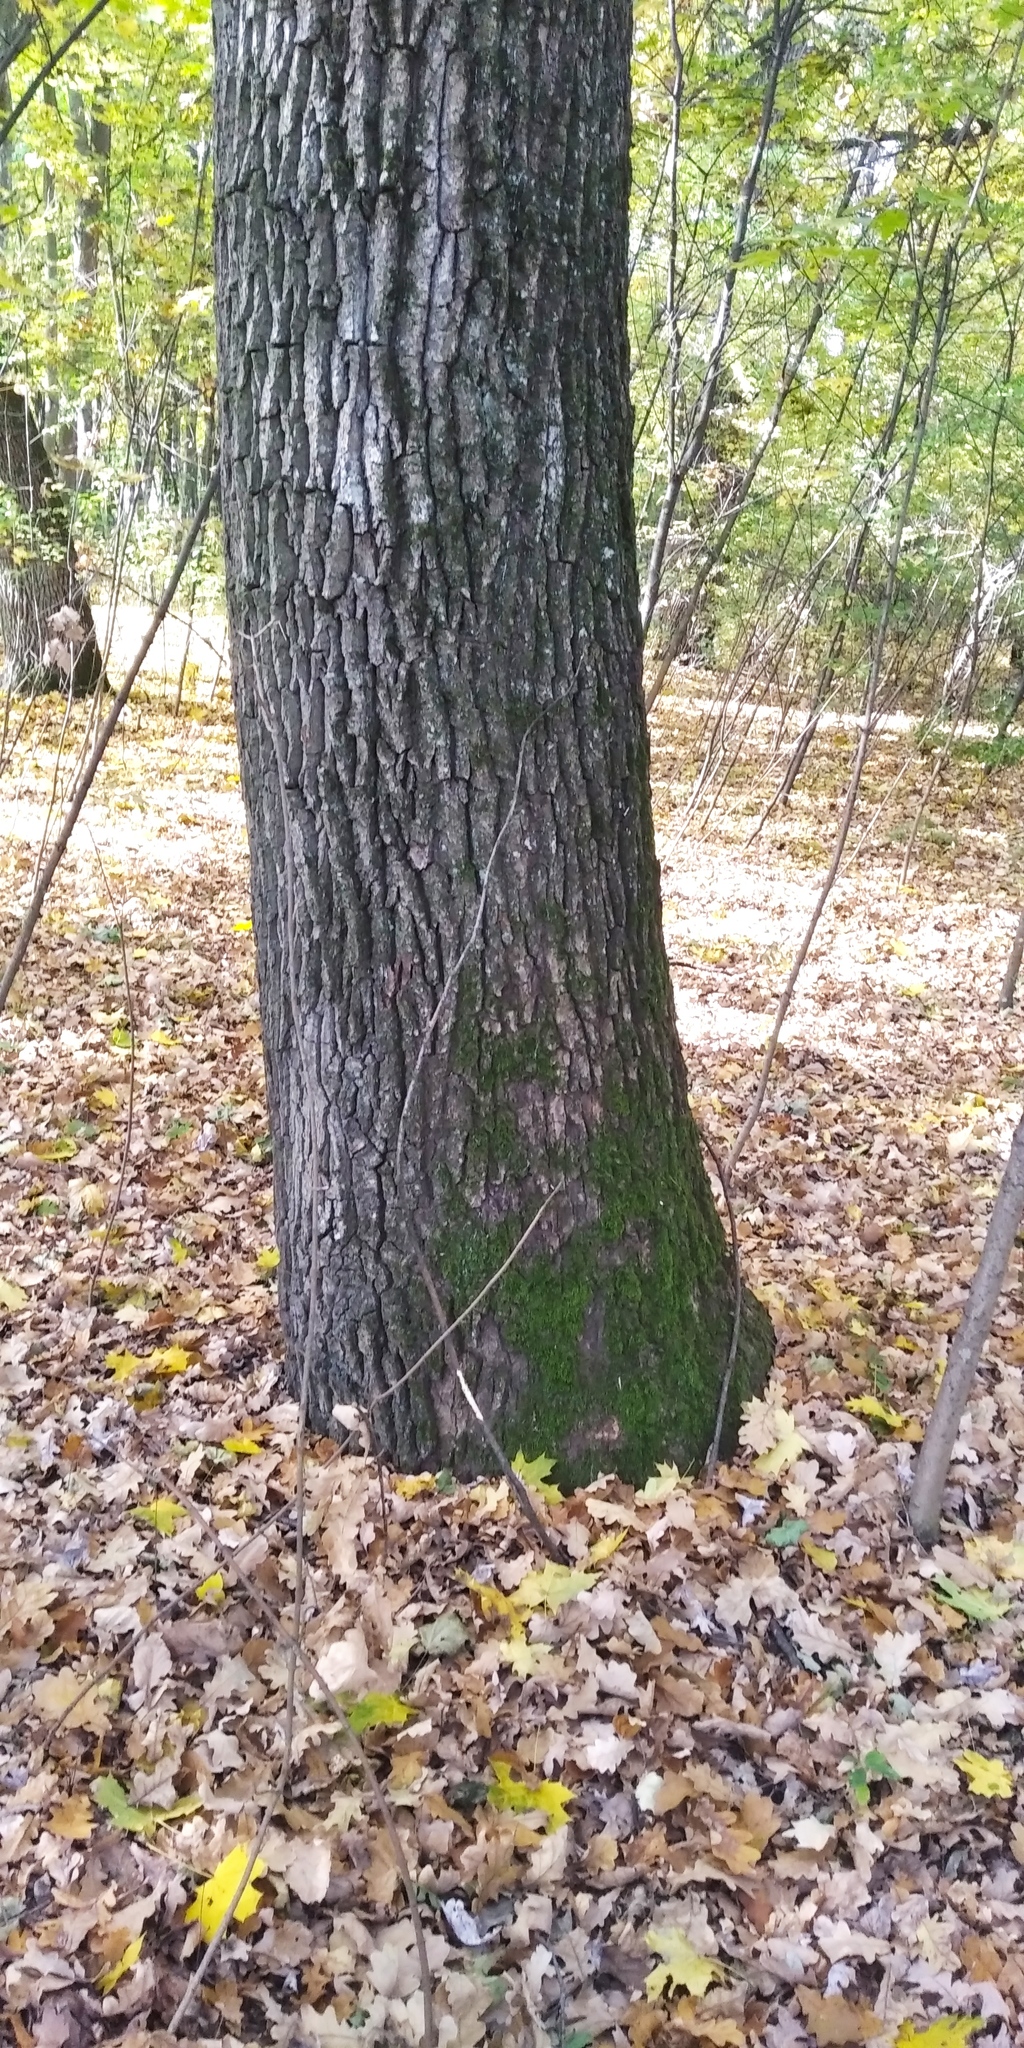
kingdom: Plantae
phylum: Tracheophyta
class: Magnoliopsida
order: Fagales
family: Fagaceae
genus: Quercus
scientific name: Quercus robur
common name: Pedunculate oak
